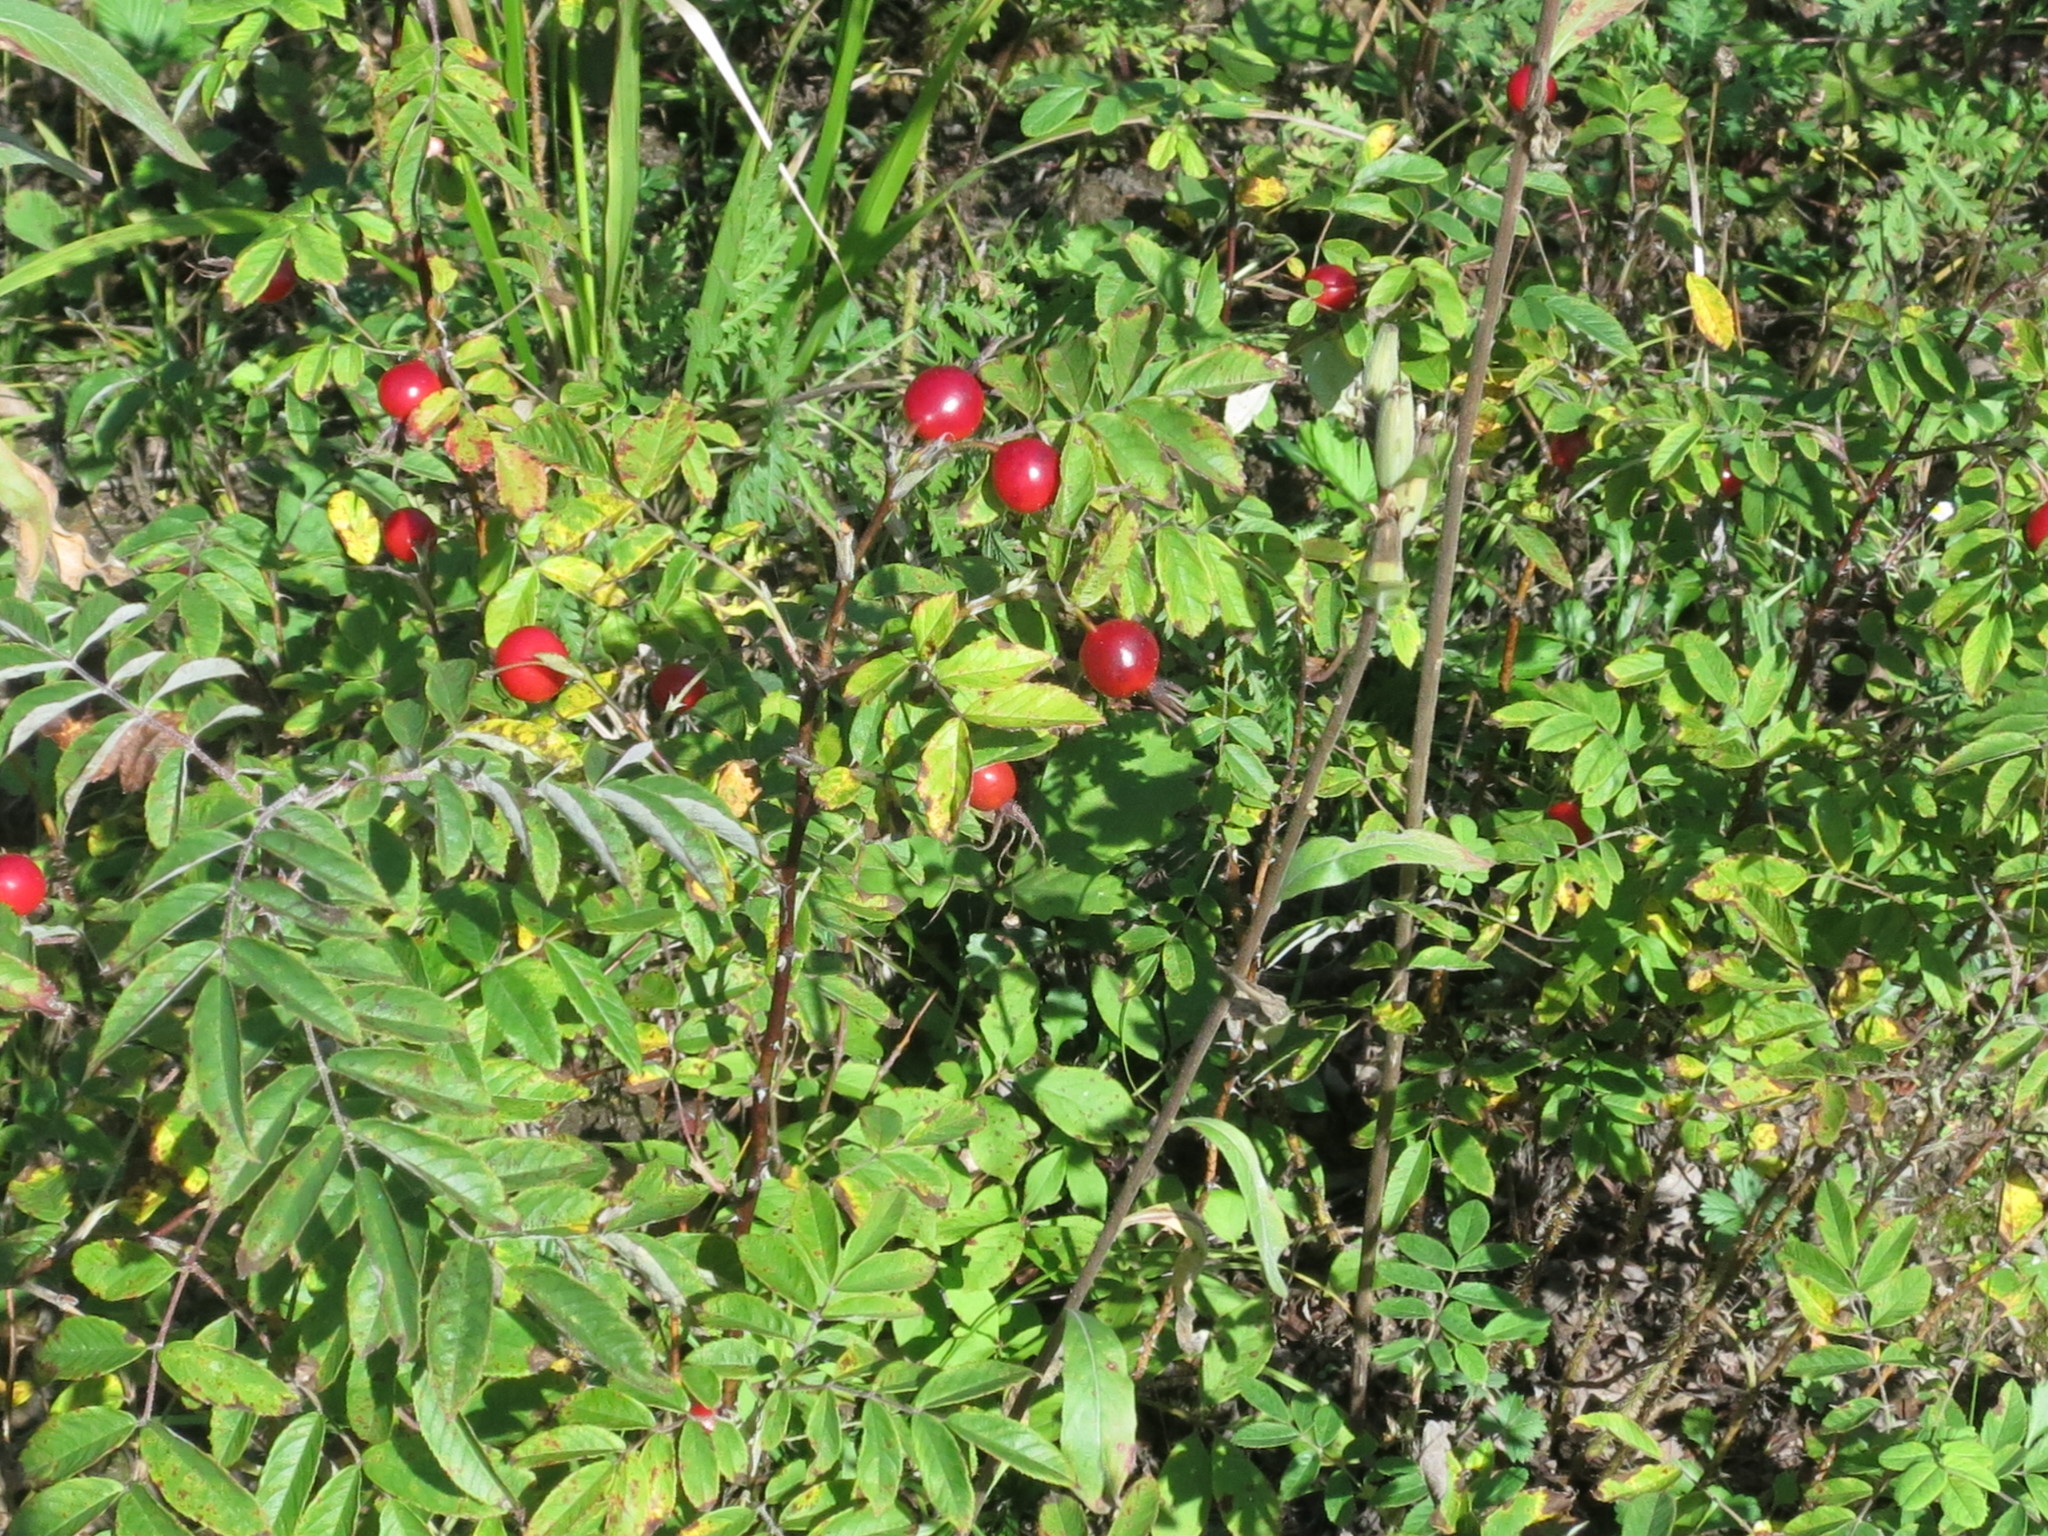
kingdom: Plantae
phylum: Tracheophyta
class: Magnoliopsida
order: Rosales
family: Rosaceae
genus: Rosa
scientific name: Rosa davurica
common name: Amur rose
